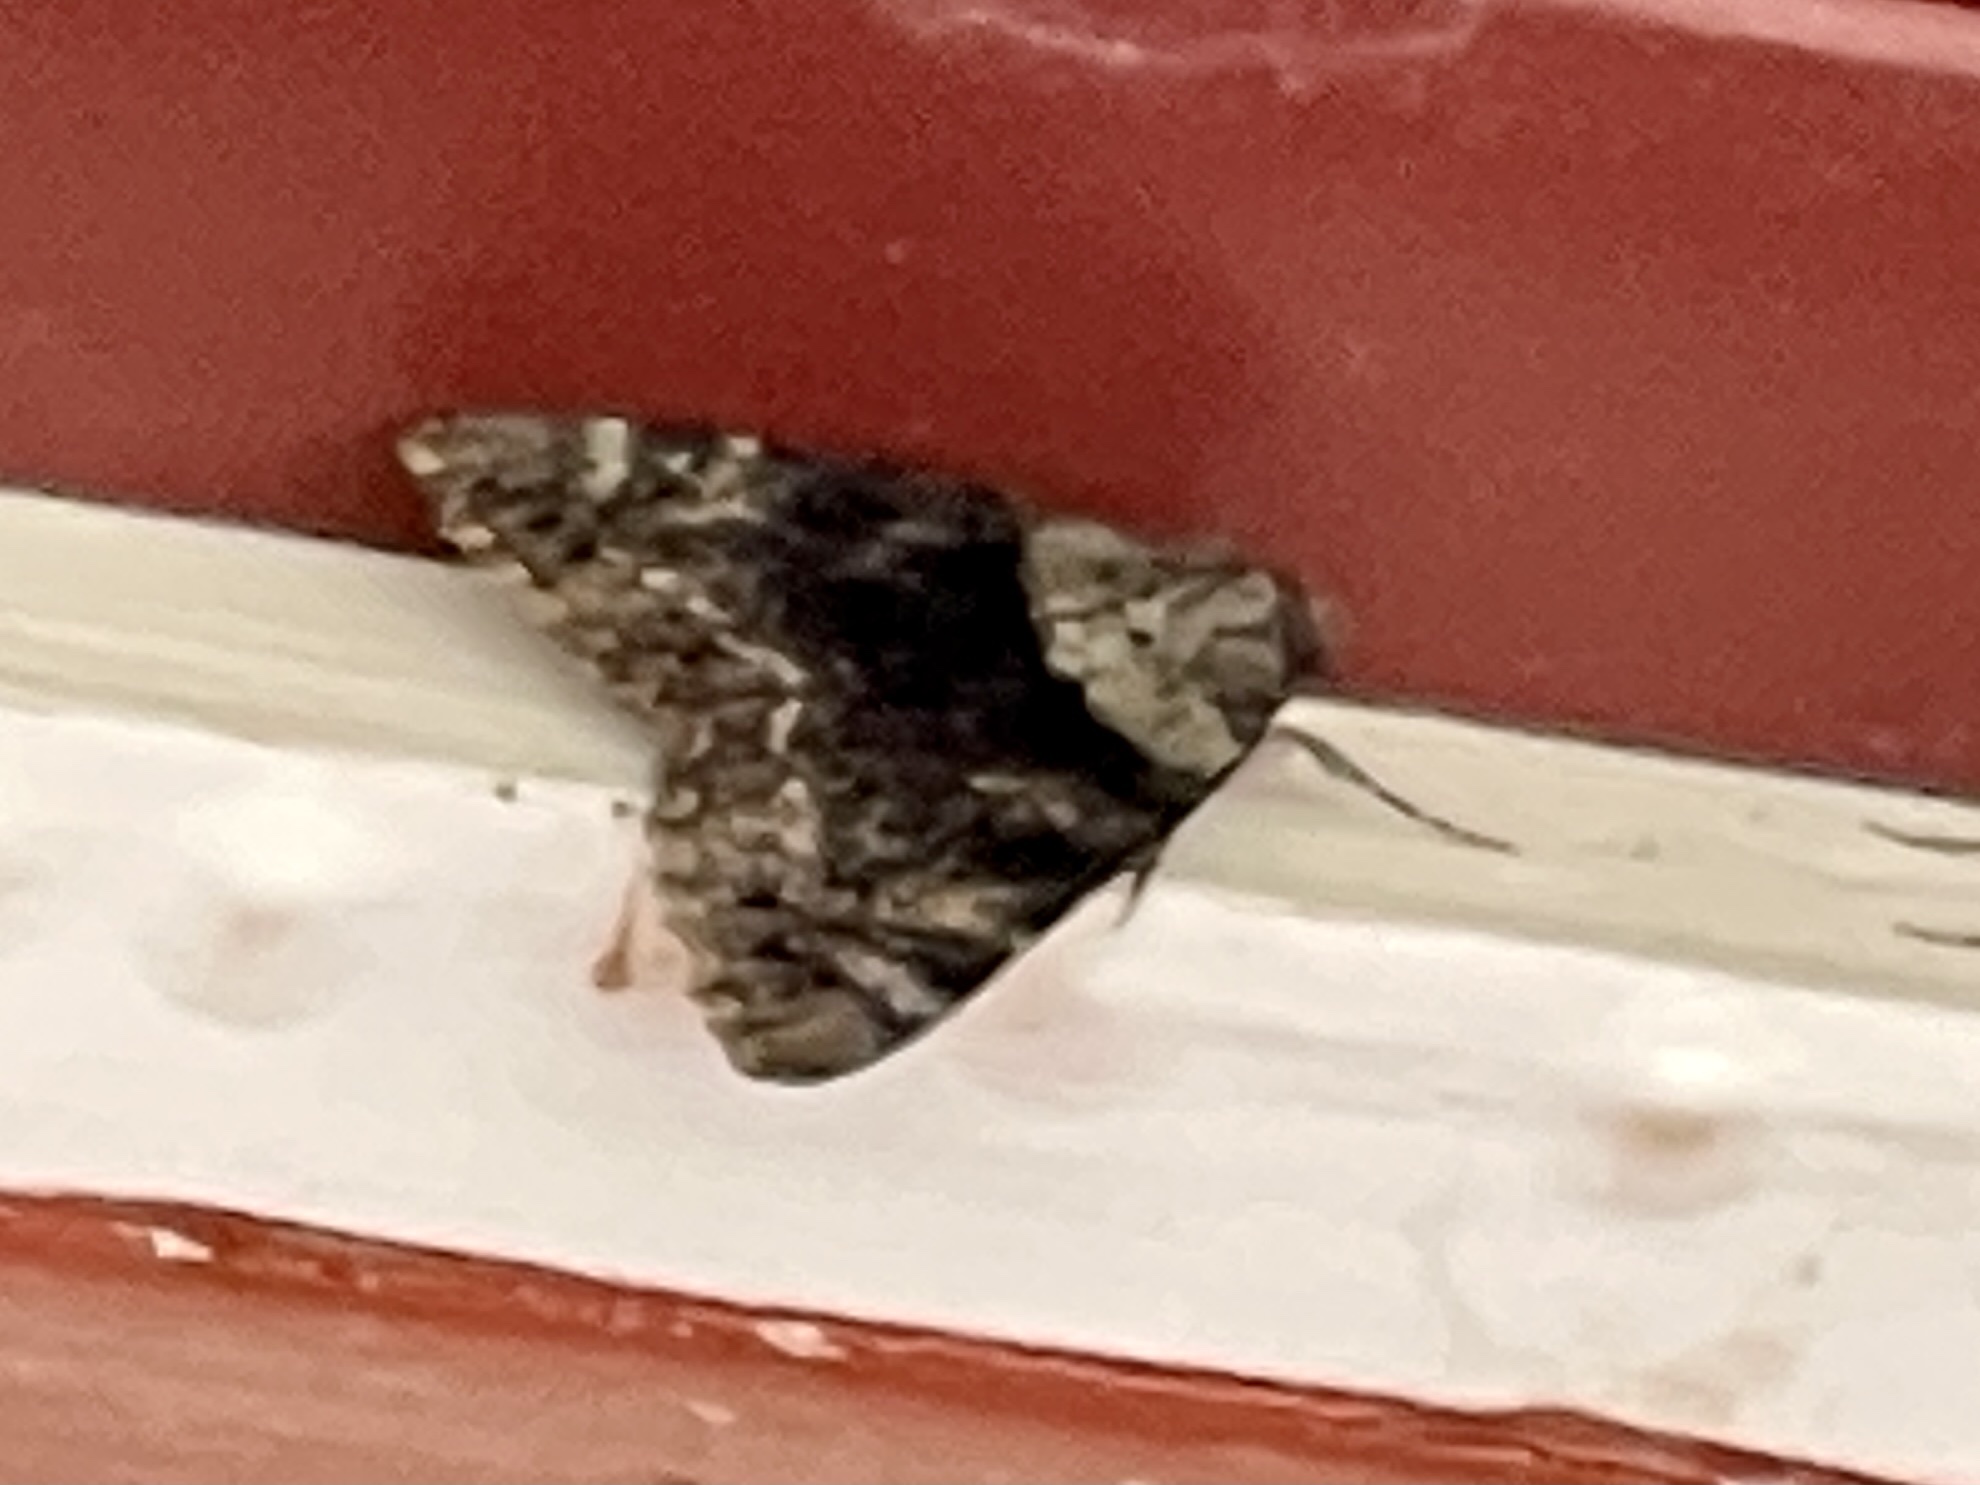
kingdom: Animalia
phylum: Arthropoda
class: Insecta
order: Lepidoptera
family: Erebidae
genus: Catocala
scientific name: Catocala desdemona
